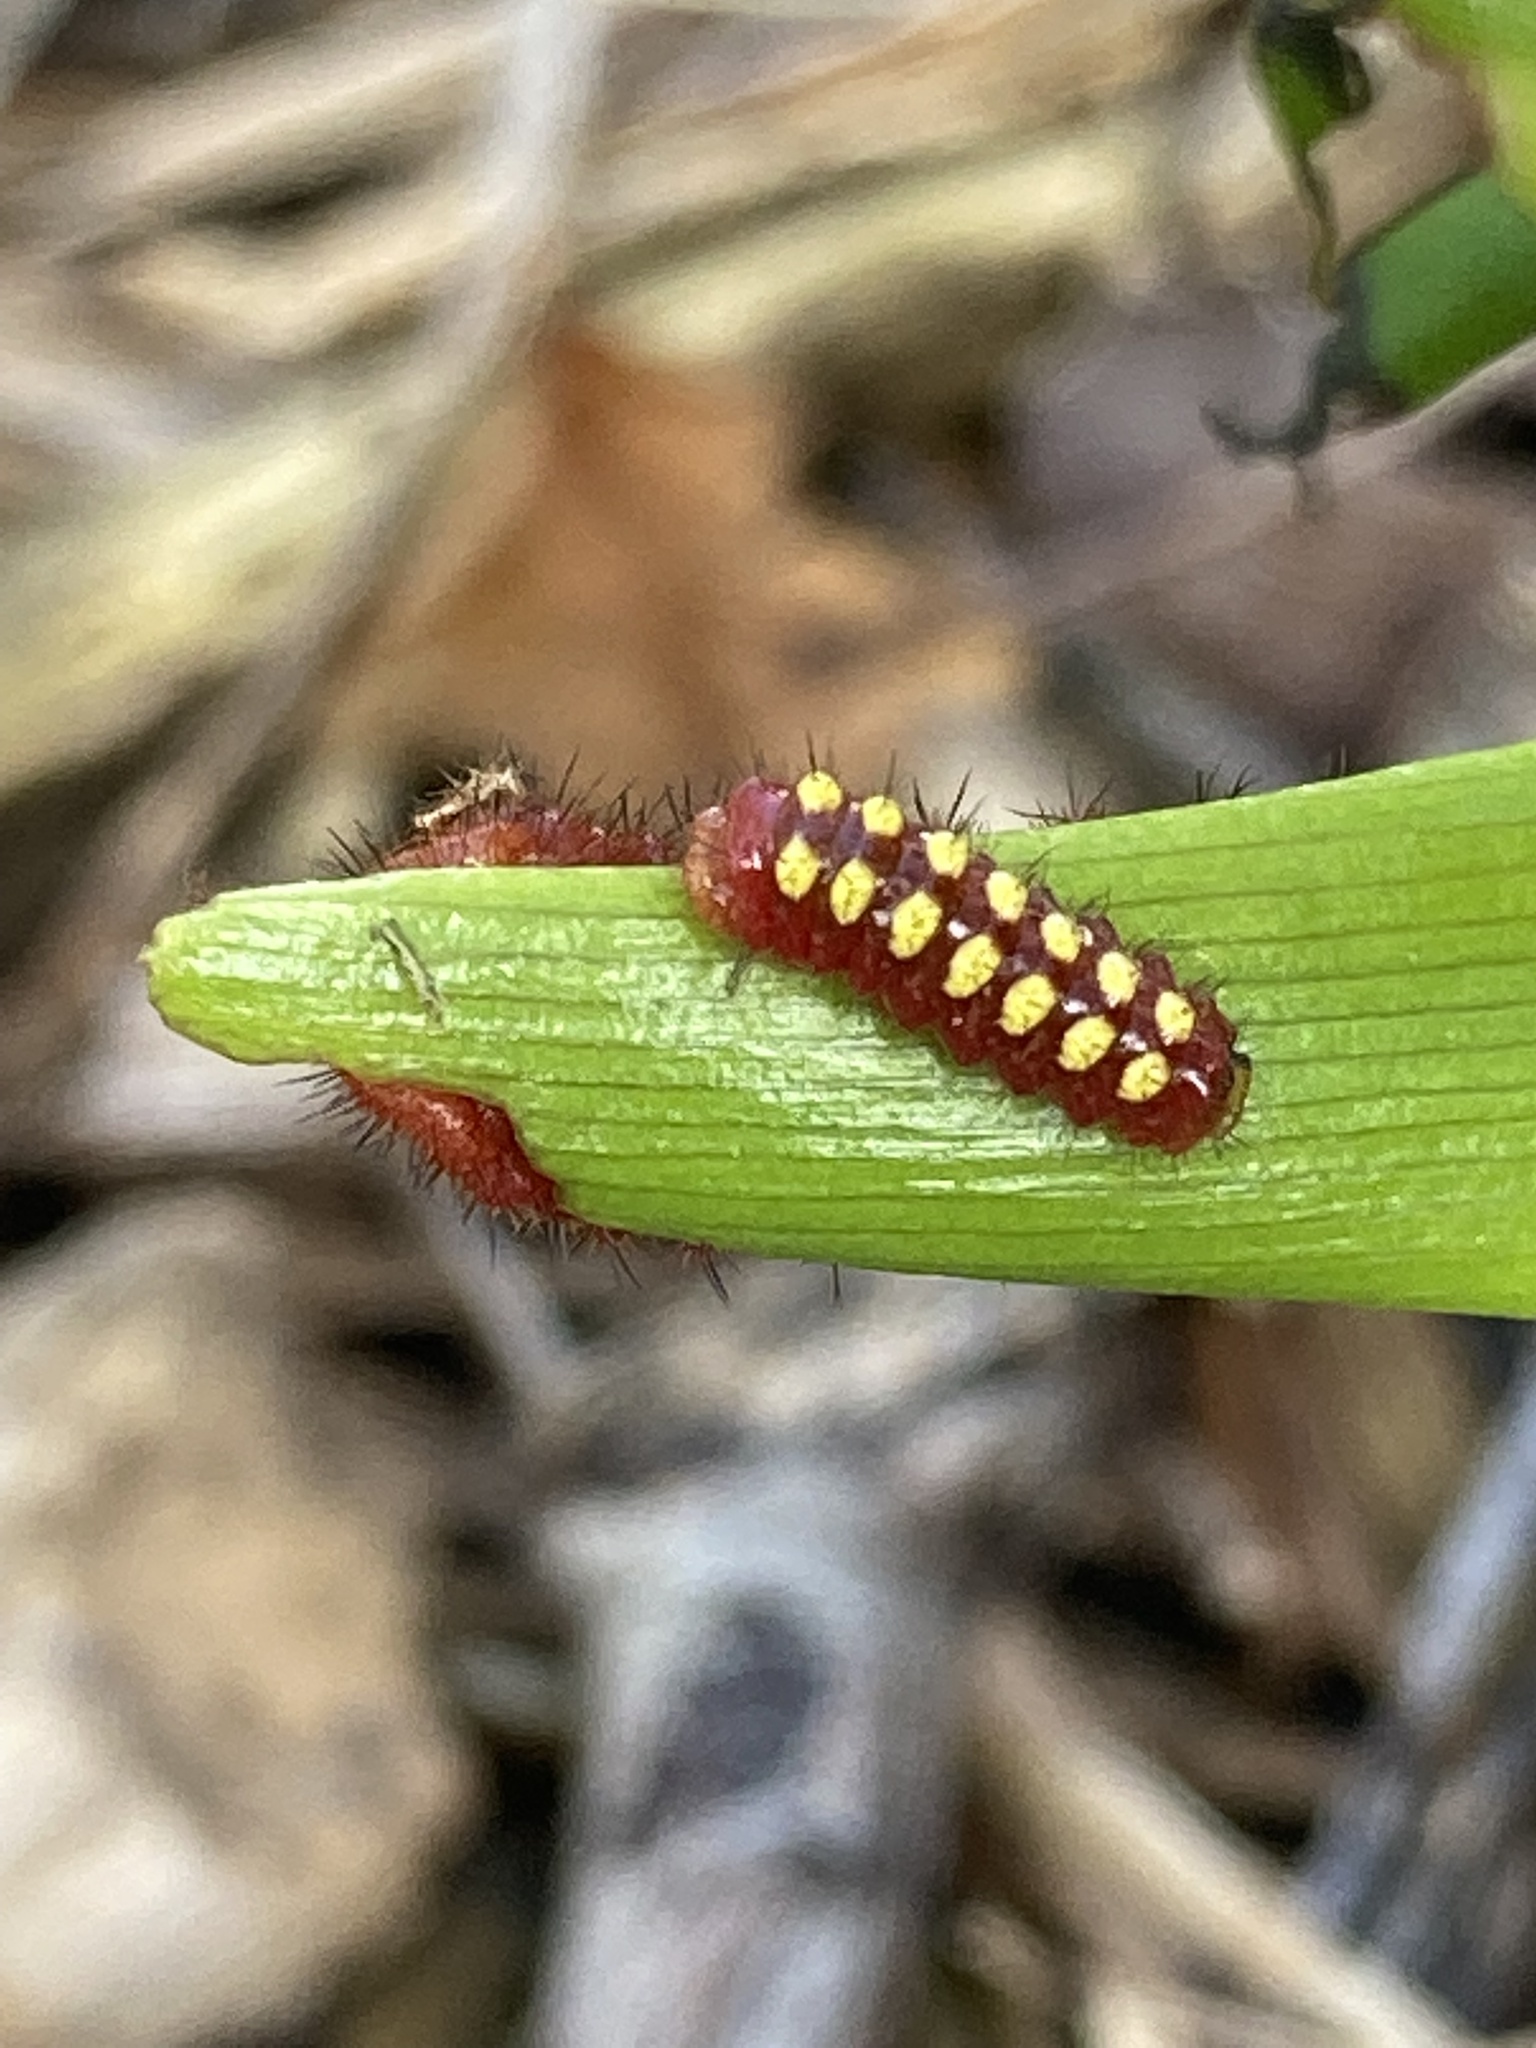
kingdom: Animalia
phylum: Arthropoda
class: Insecta
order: Lepidoptera
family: Lycaenidae
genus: Eumaeus
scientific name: Eumaeus atala
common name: Atala
